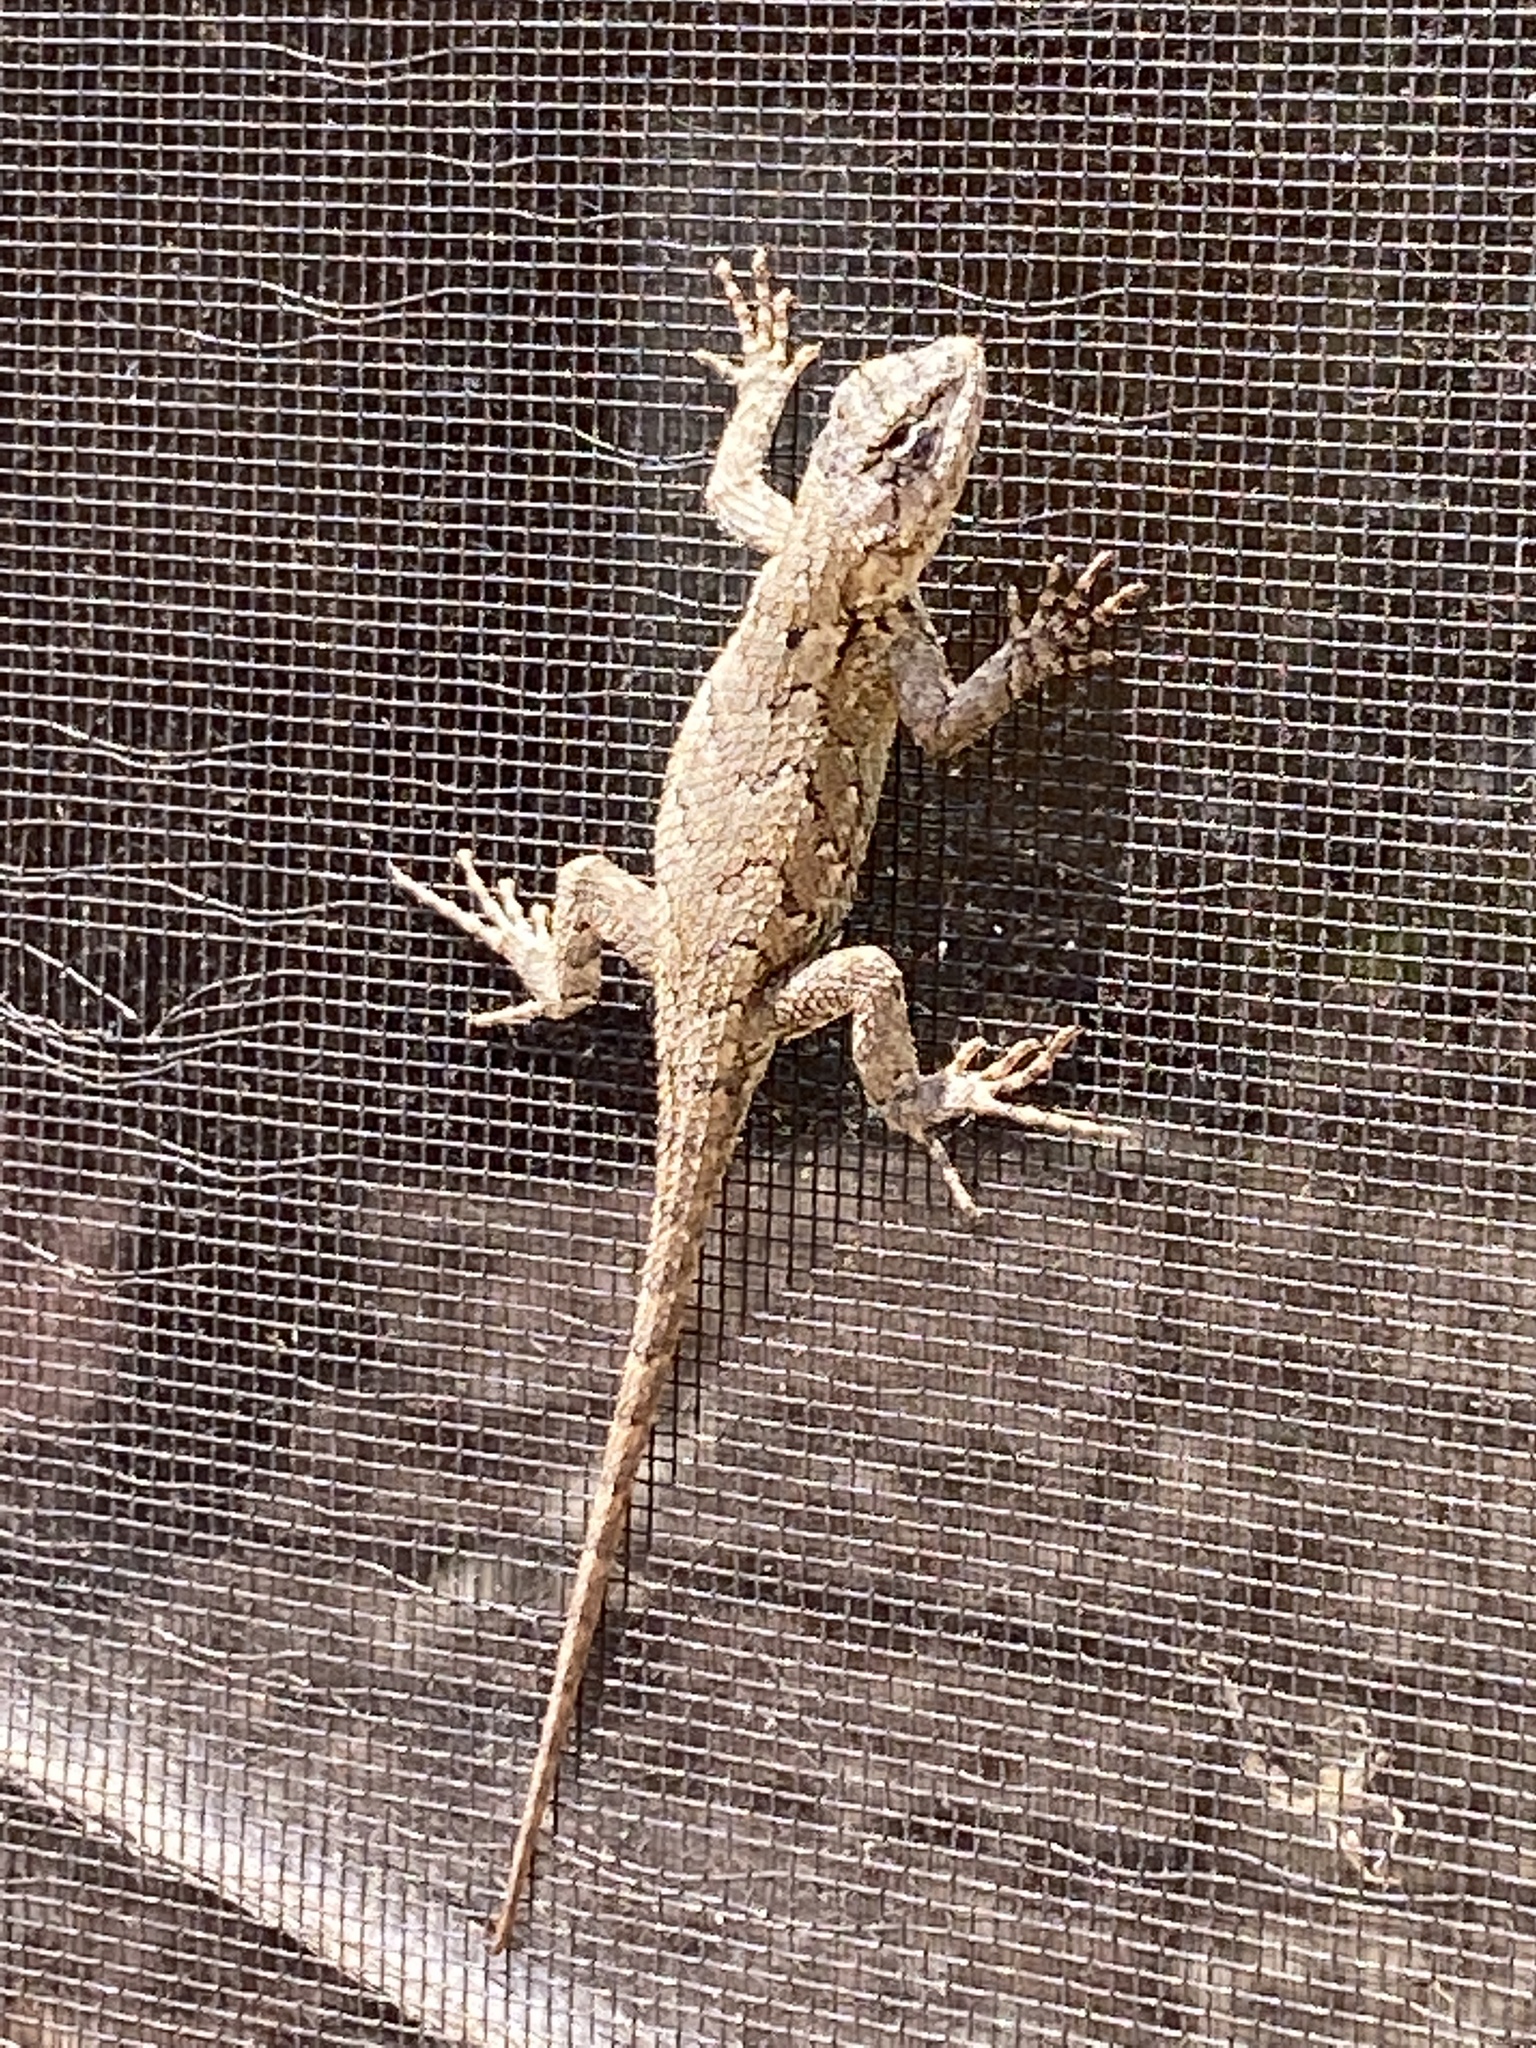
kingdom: Animalia
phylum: Chordata
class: Squamata
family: Phrynosomatidae
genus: Sceloporus
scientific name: Sceloporus undulatus
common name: Eastern fence lizard
